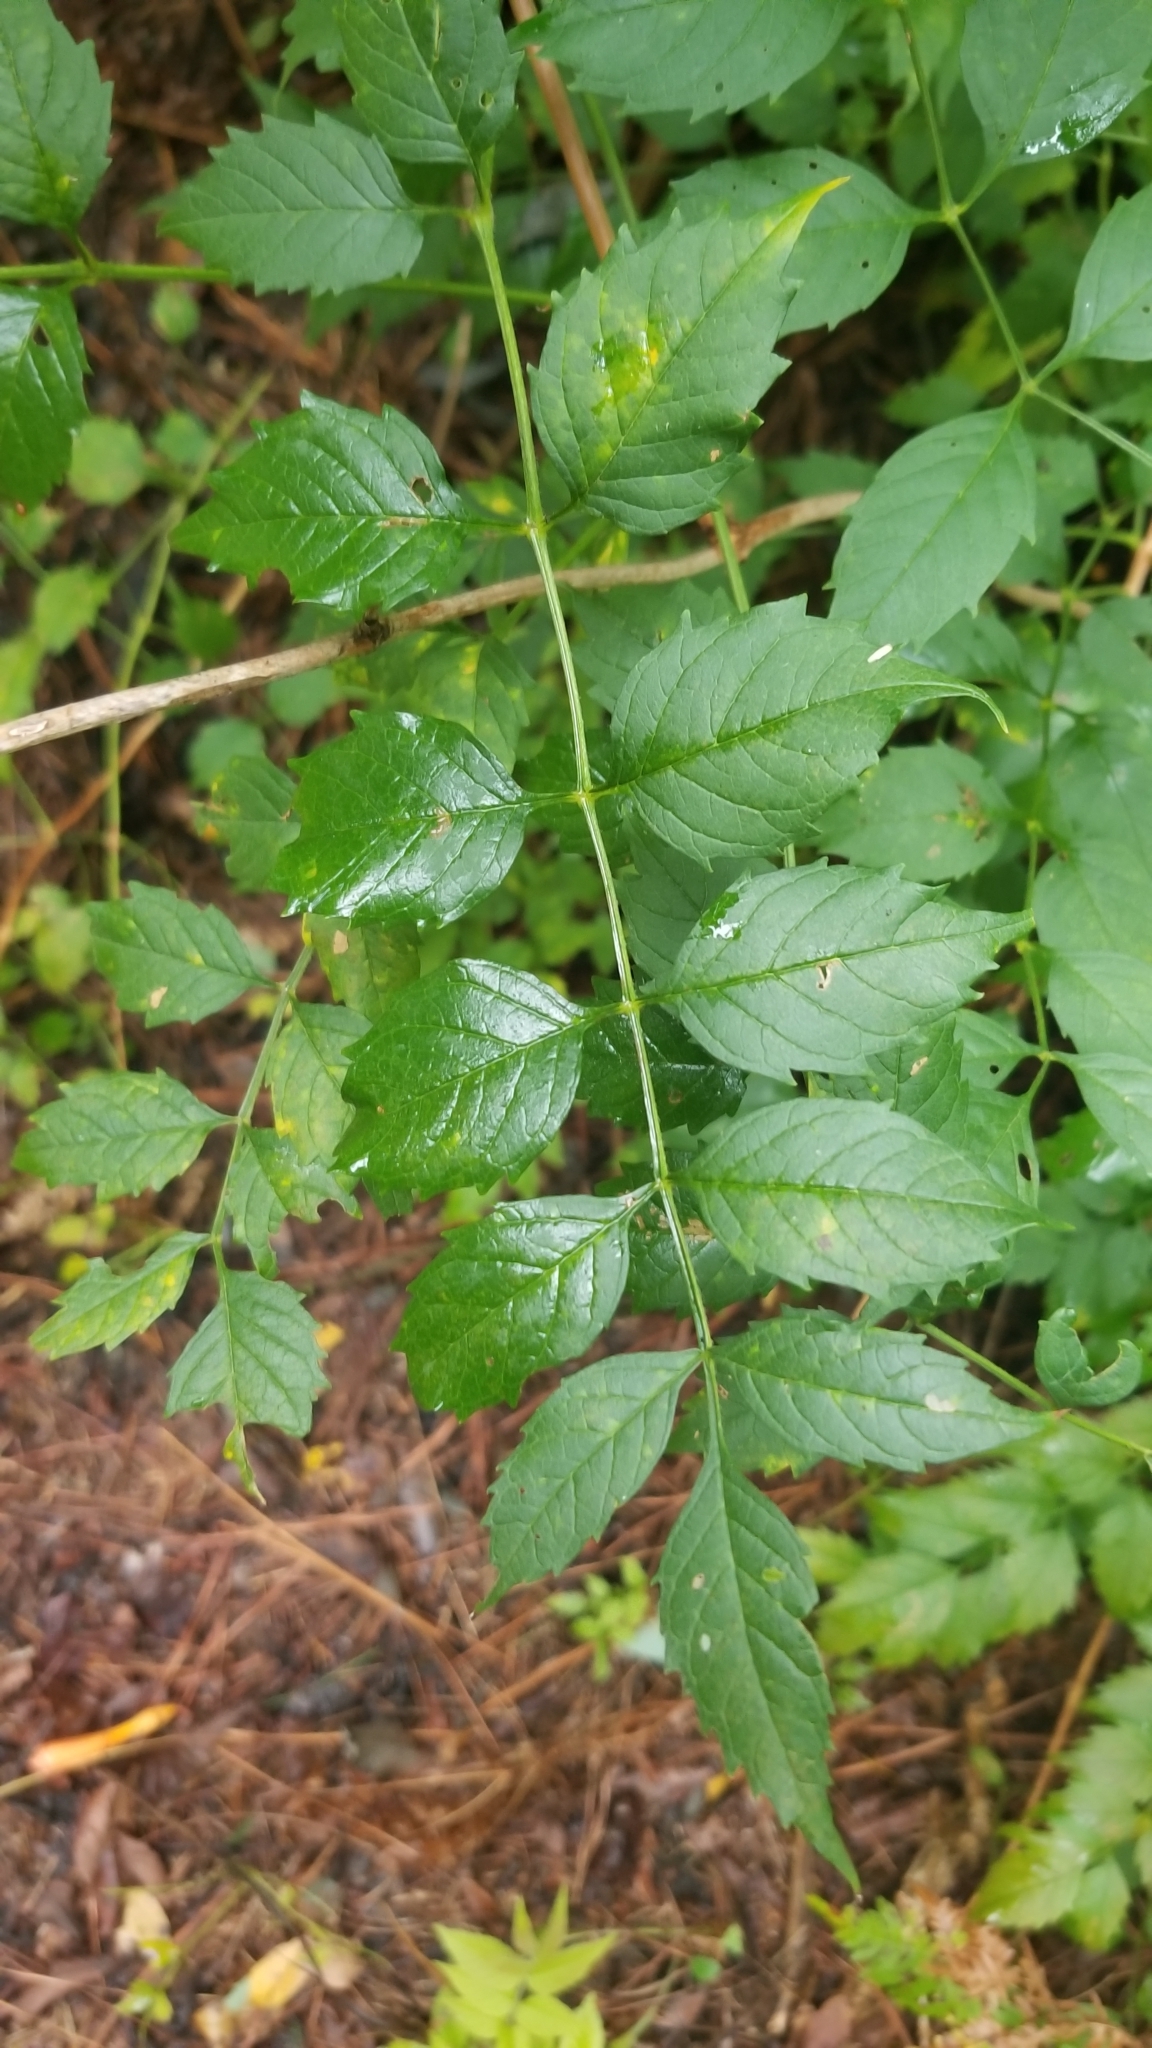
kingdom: Plantae
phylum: Tracheophyta
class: Magnoliopsida
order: Lamiales
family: Bignoniaceae
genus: Campsis
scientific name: Campsis radicans
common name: Trumpet-creeper
